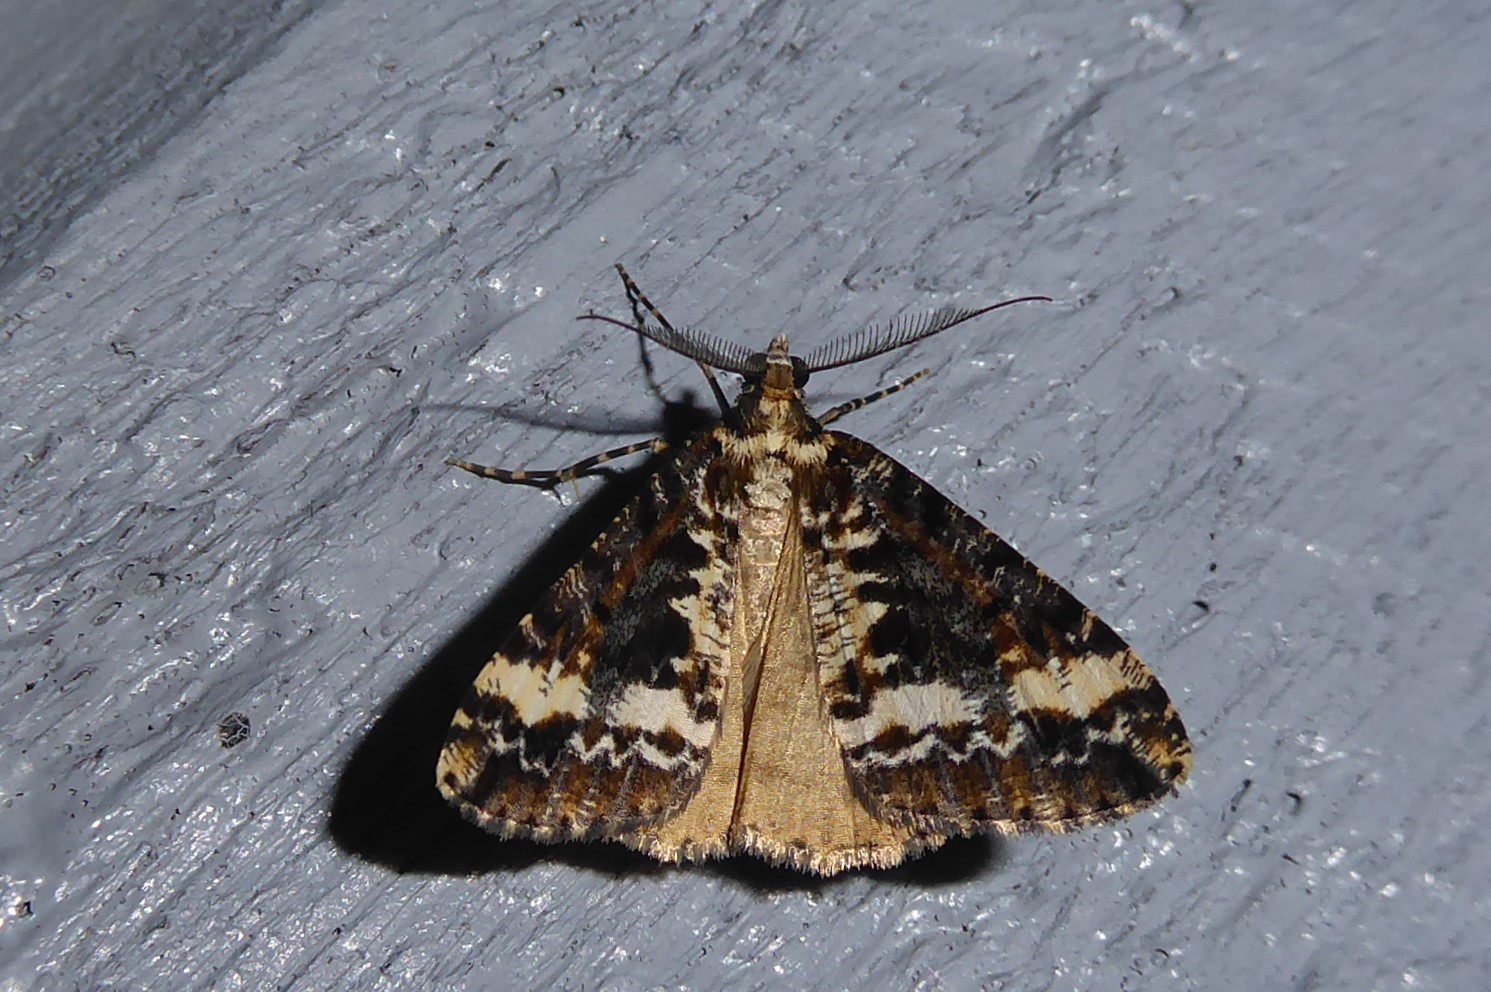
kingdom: Animalia
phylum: Arthropoda
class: Insecta
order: Lepidoptera
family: Geometridae
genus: Pseudocoremia
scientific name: Pseudocoremia leucelaea
